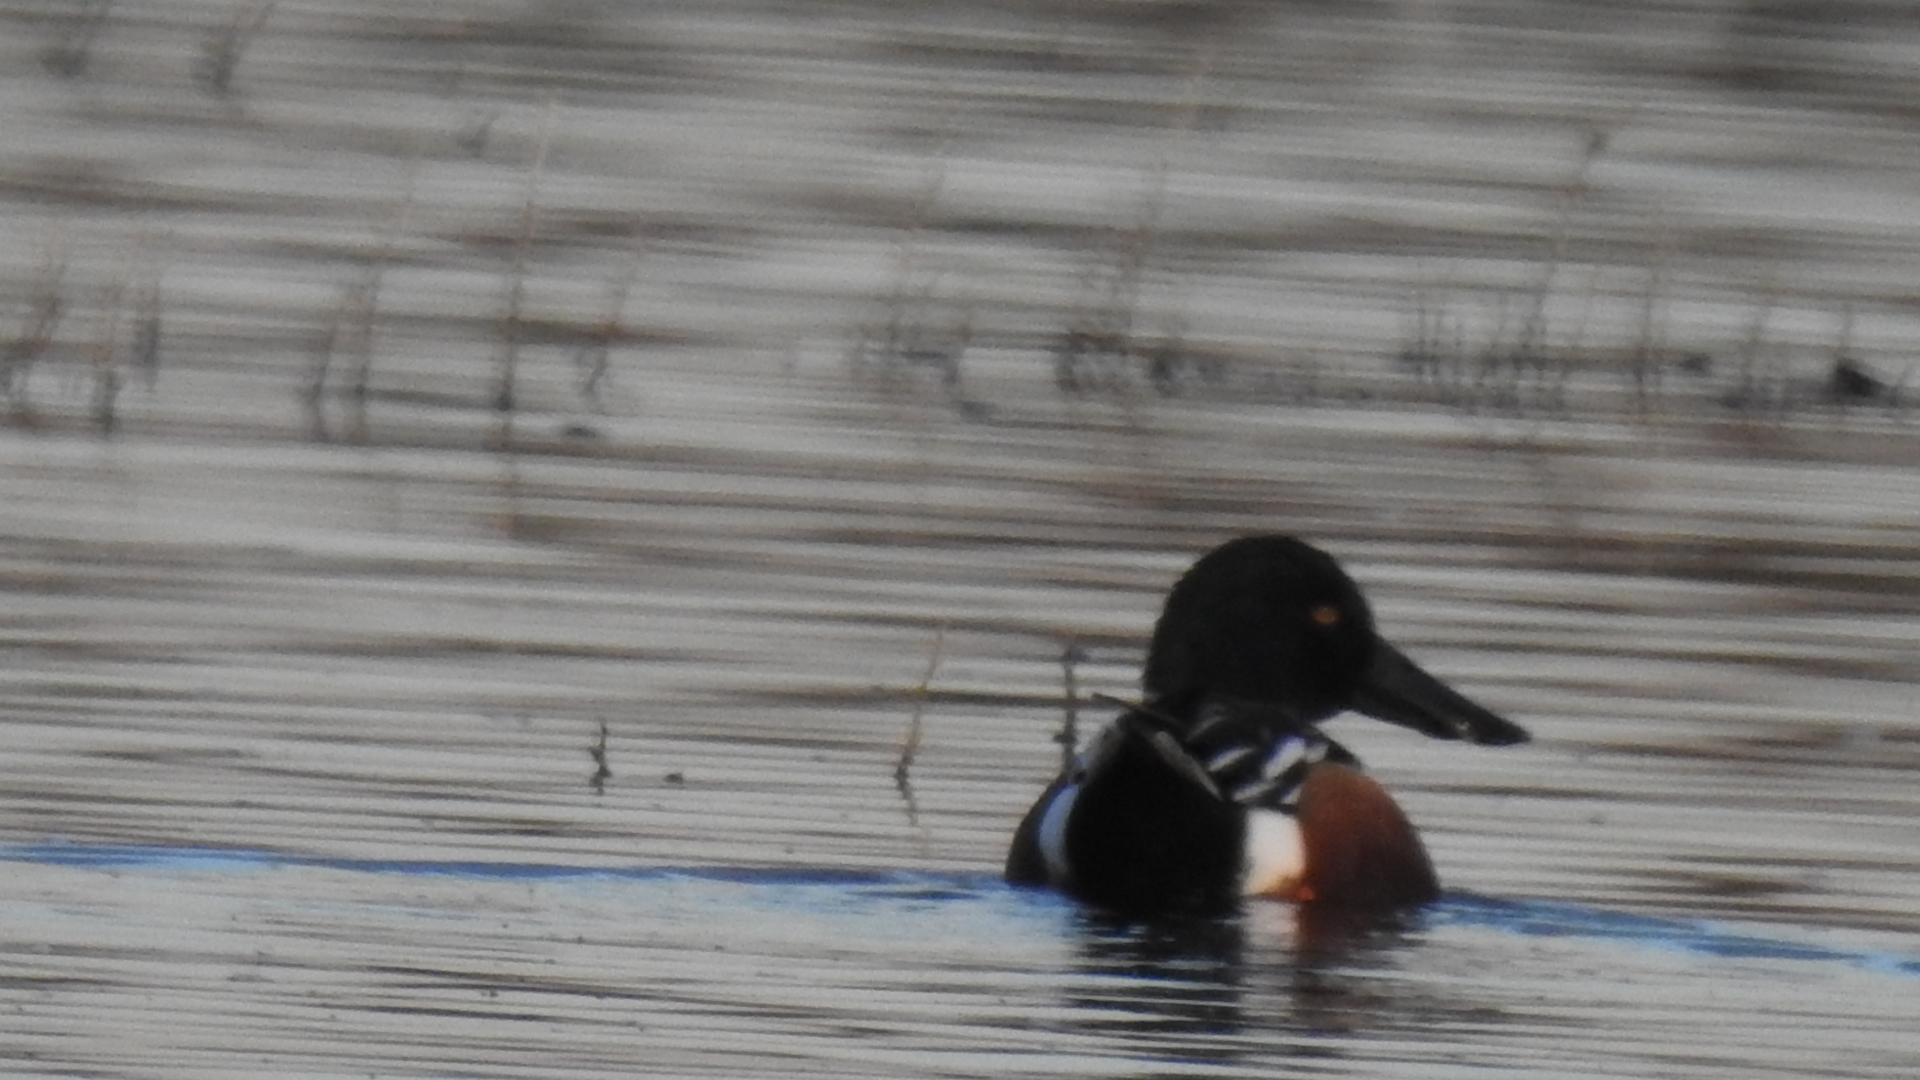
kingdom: Animalia
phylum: Chordata
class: Aves
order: Anseriformes
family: Anatidae
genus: Spatula
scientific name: Spatula clypeata
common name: Northern shoveler
